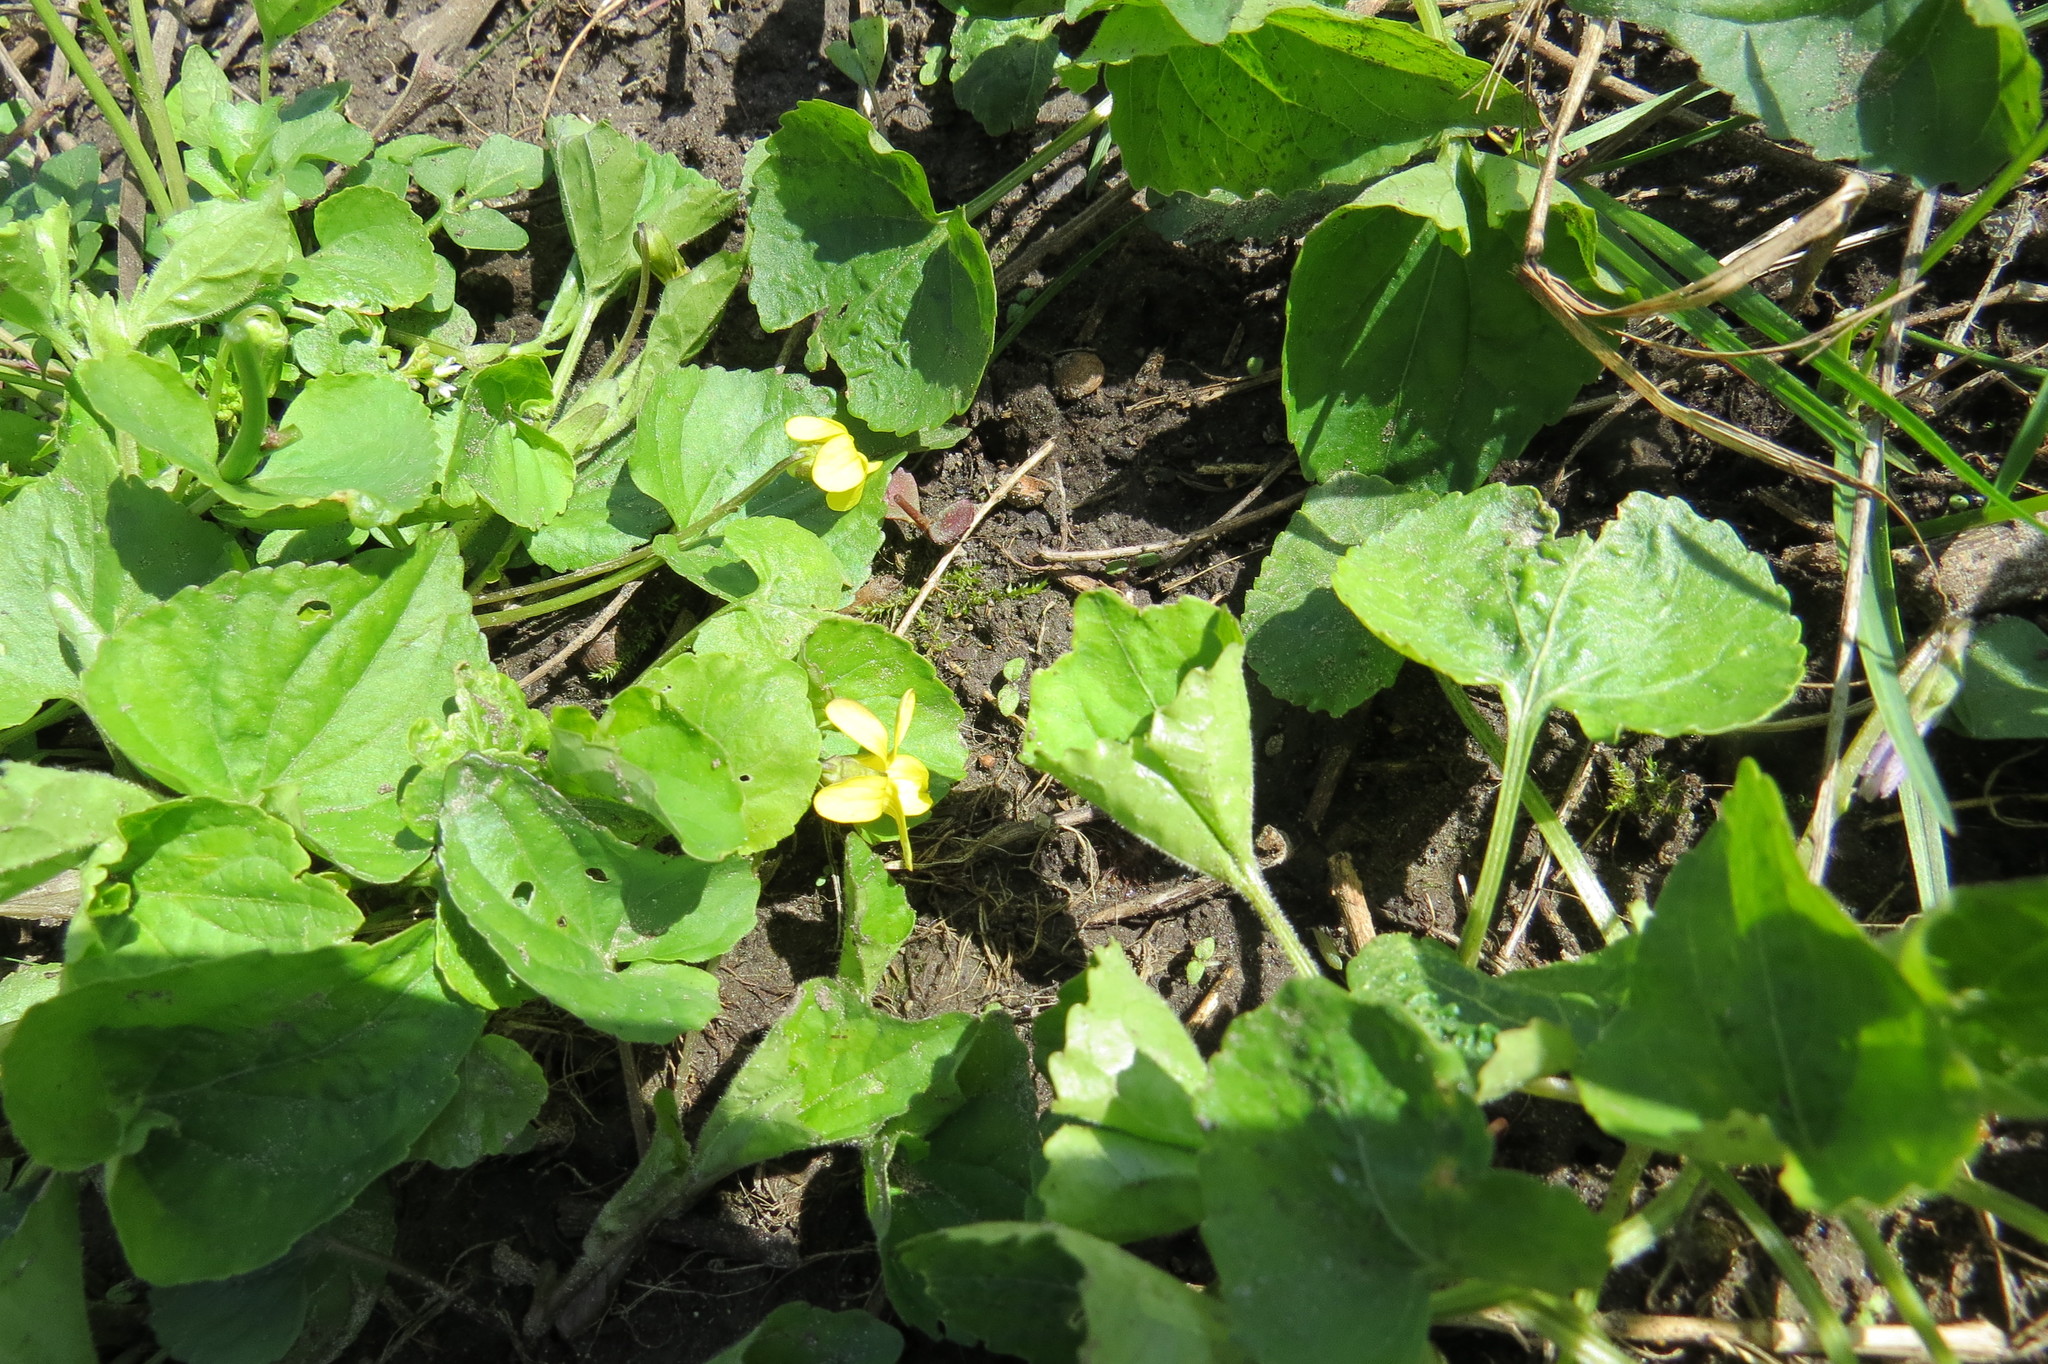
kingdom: Plantae
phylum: Tracheophyta
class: Magnoliopsida
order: Malpighiales
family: Violaceae
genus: Viola
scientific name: Viola eriocarpa
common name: Smooth yellow violet
